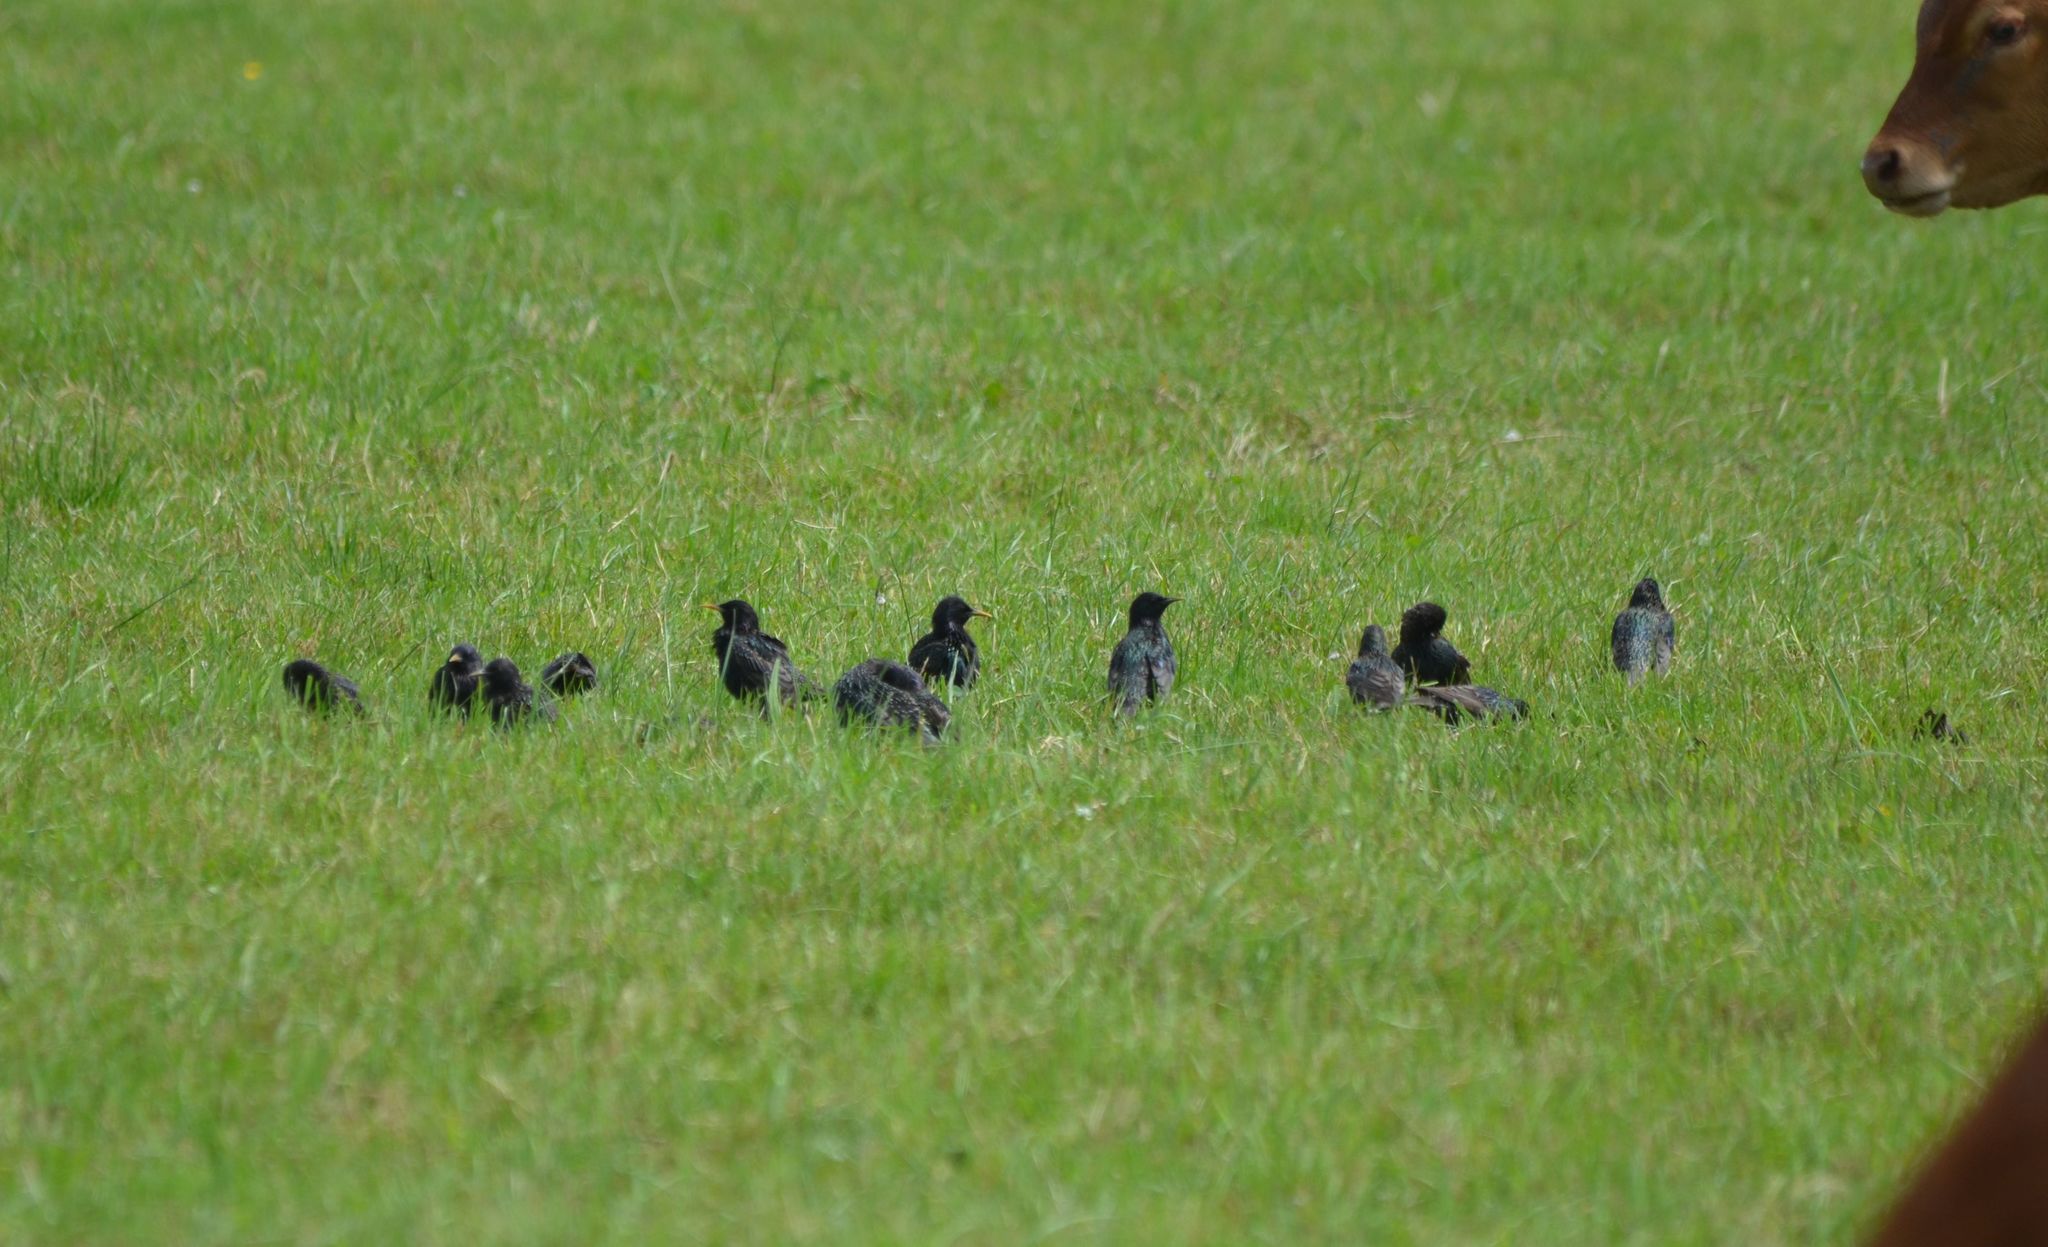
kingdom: Animalia
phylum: Chordata
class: Aves
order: Passeriformes
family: Sturnidae
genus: Sturnus
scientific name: Sturnus vulgaris
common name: Common starling
